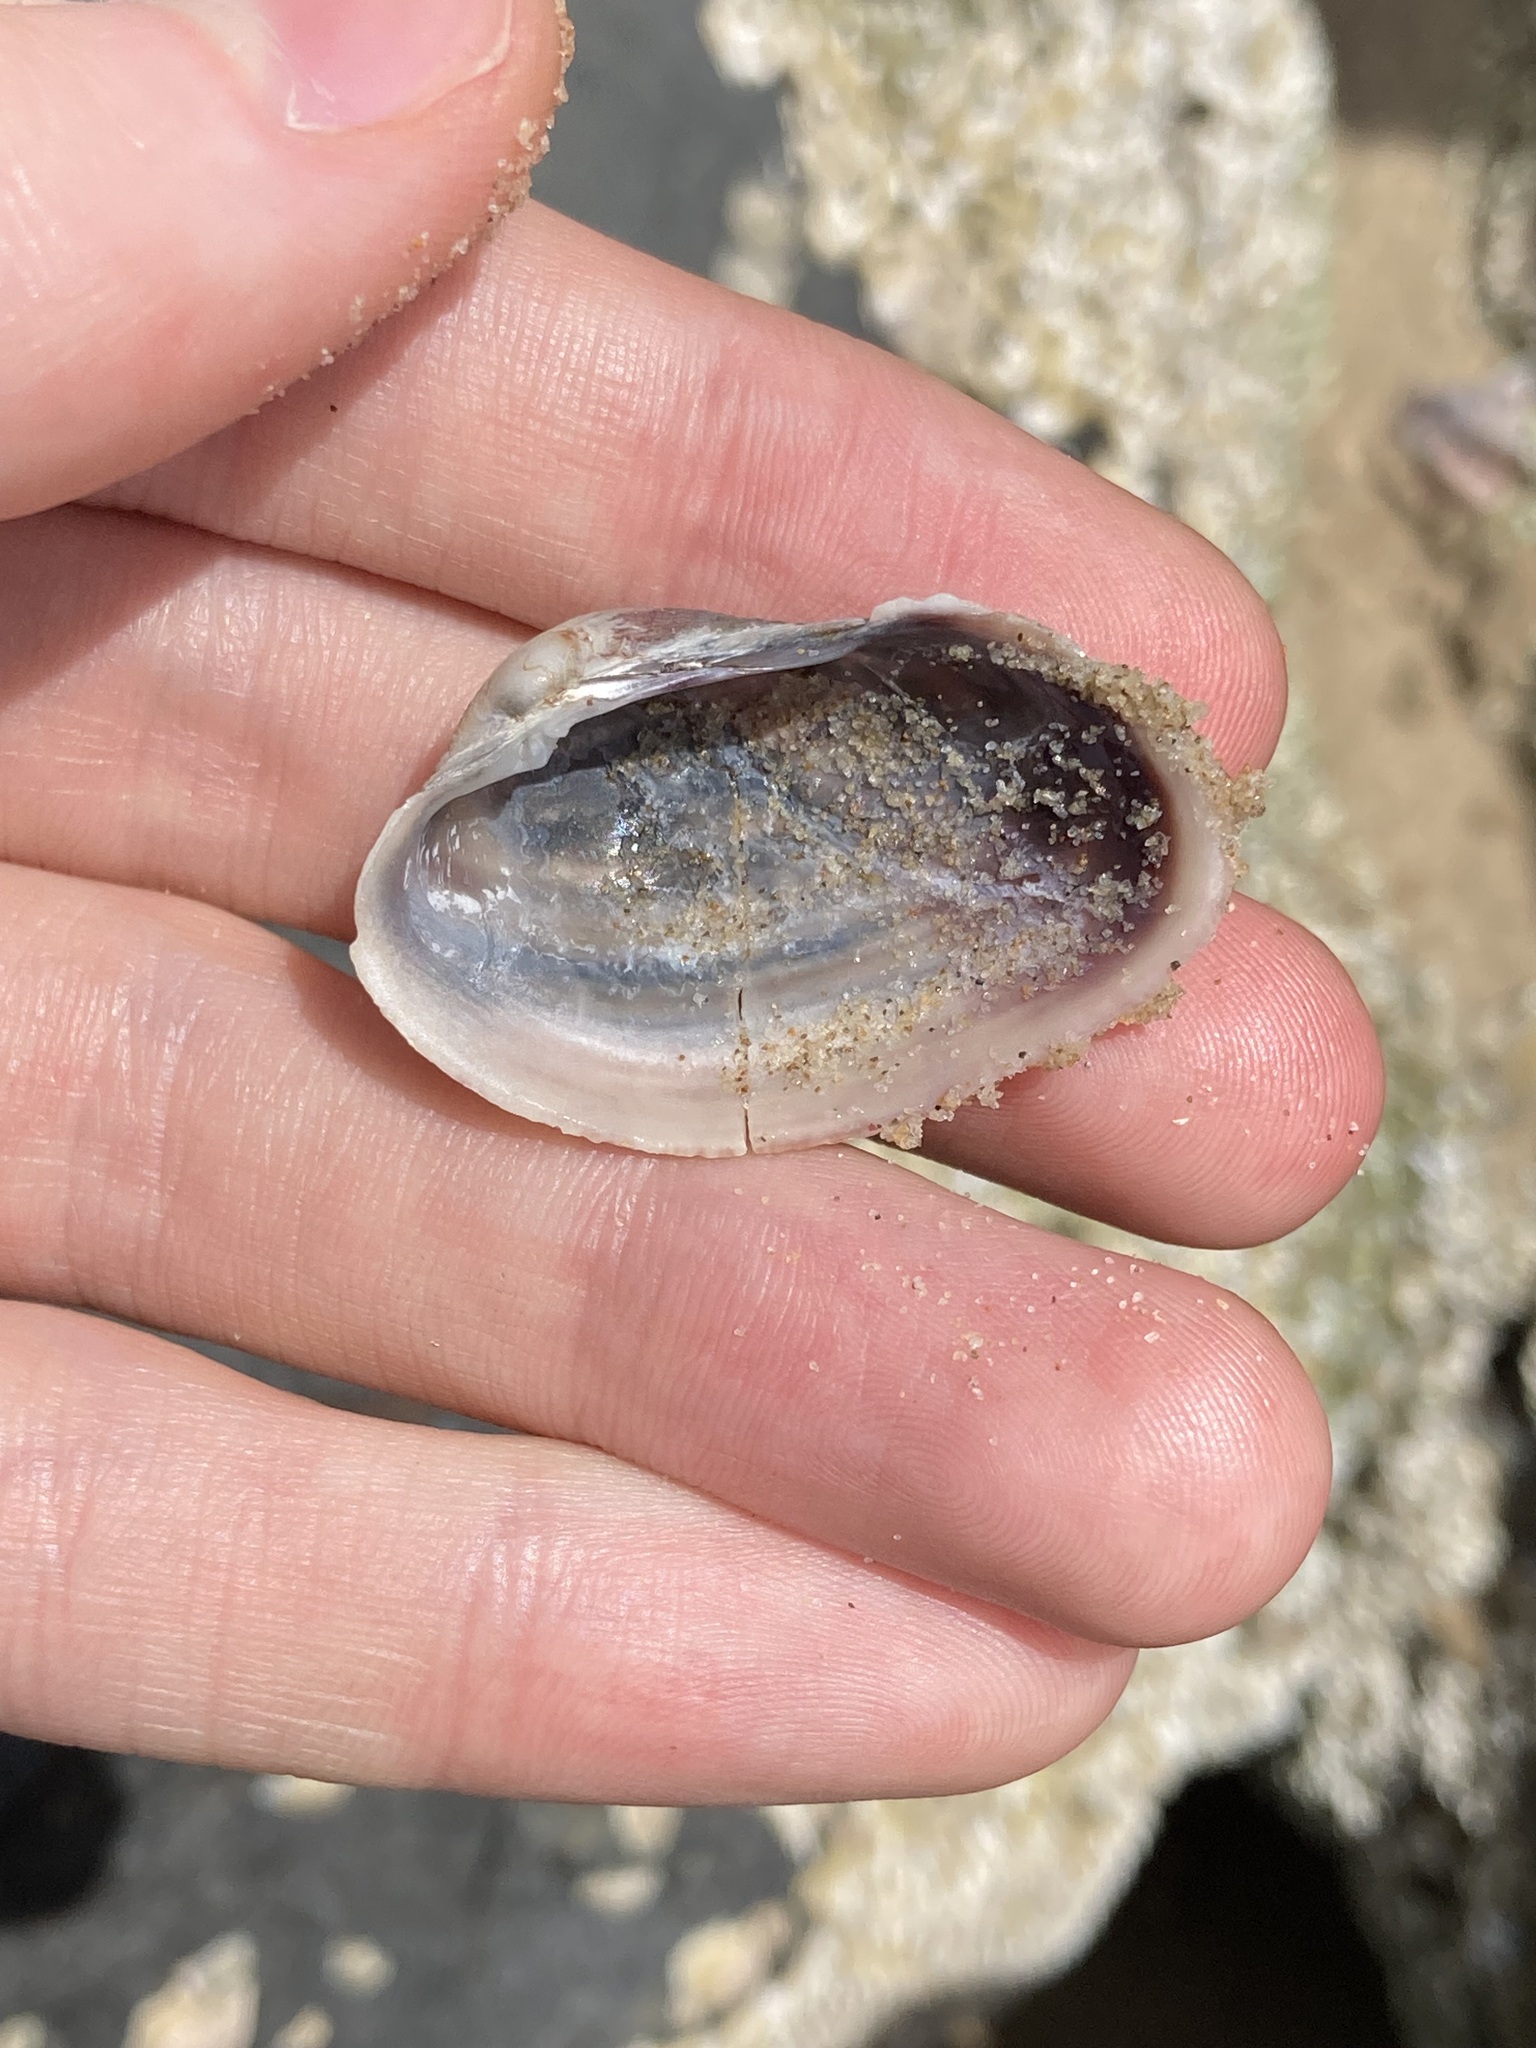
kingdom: Animalia
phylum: Mollusca
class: Bivalvia
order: Venerida
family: Veneridae
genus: Irus
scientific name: Irus crenatus
